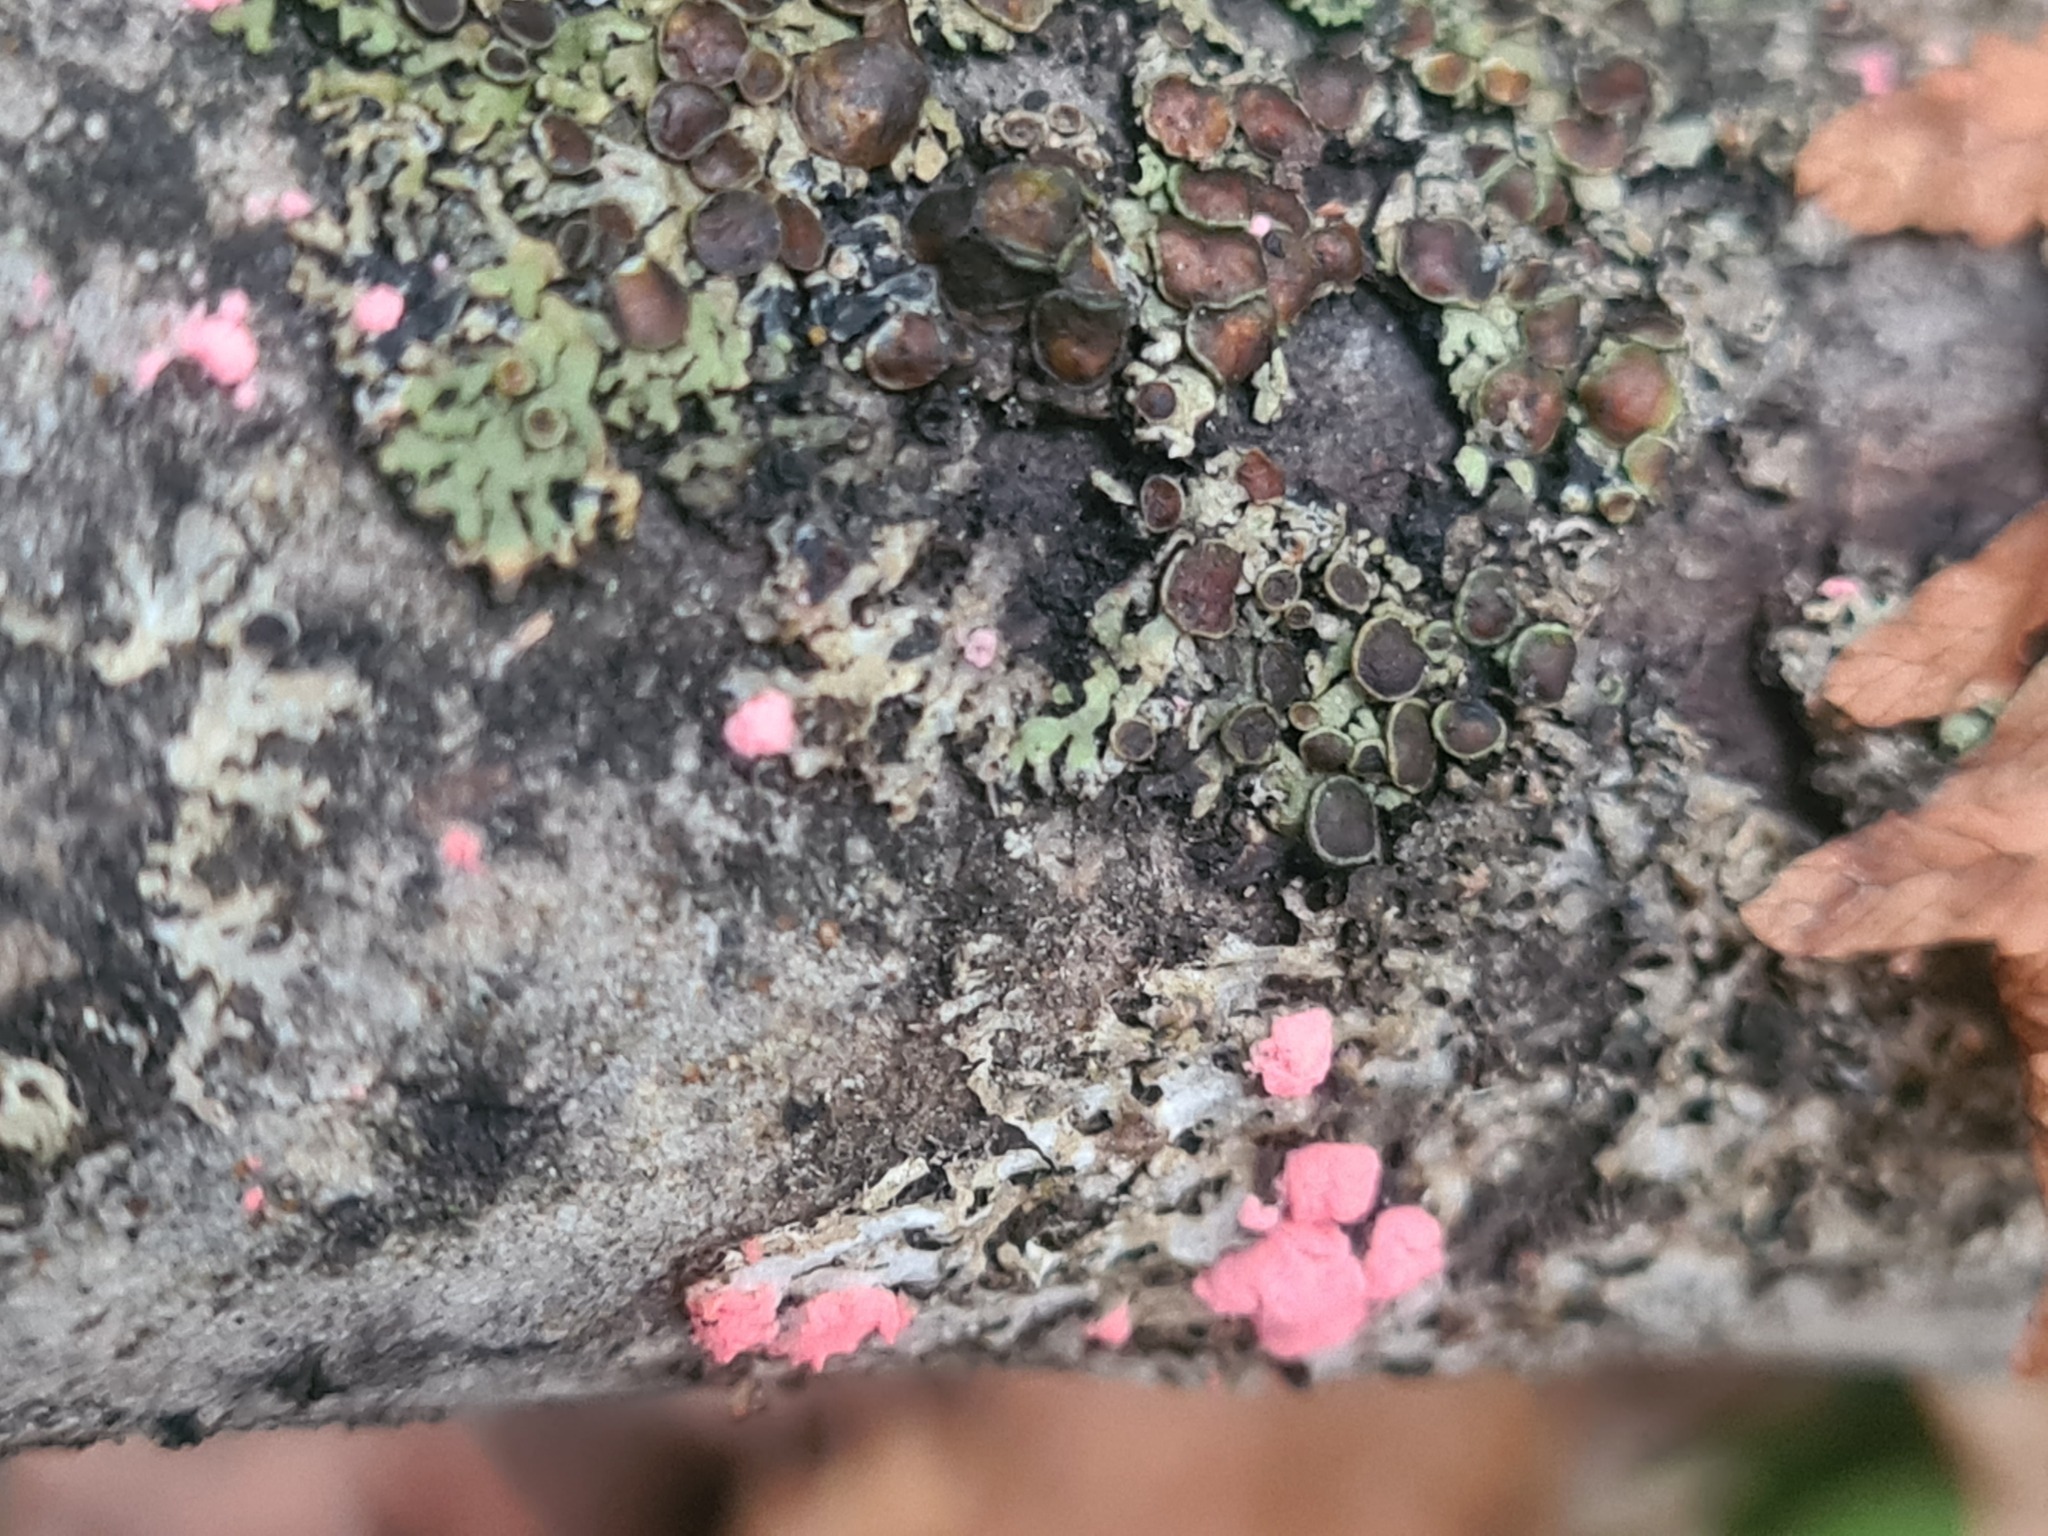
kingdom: Fungi
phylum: Ascomycota
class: Sordariomycetes
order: Hypocreales
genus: Illosporiopsis
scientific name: Illosporiopsis christiansenii
